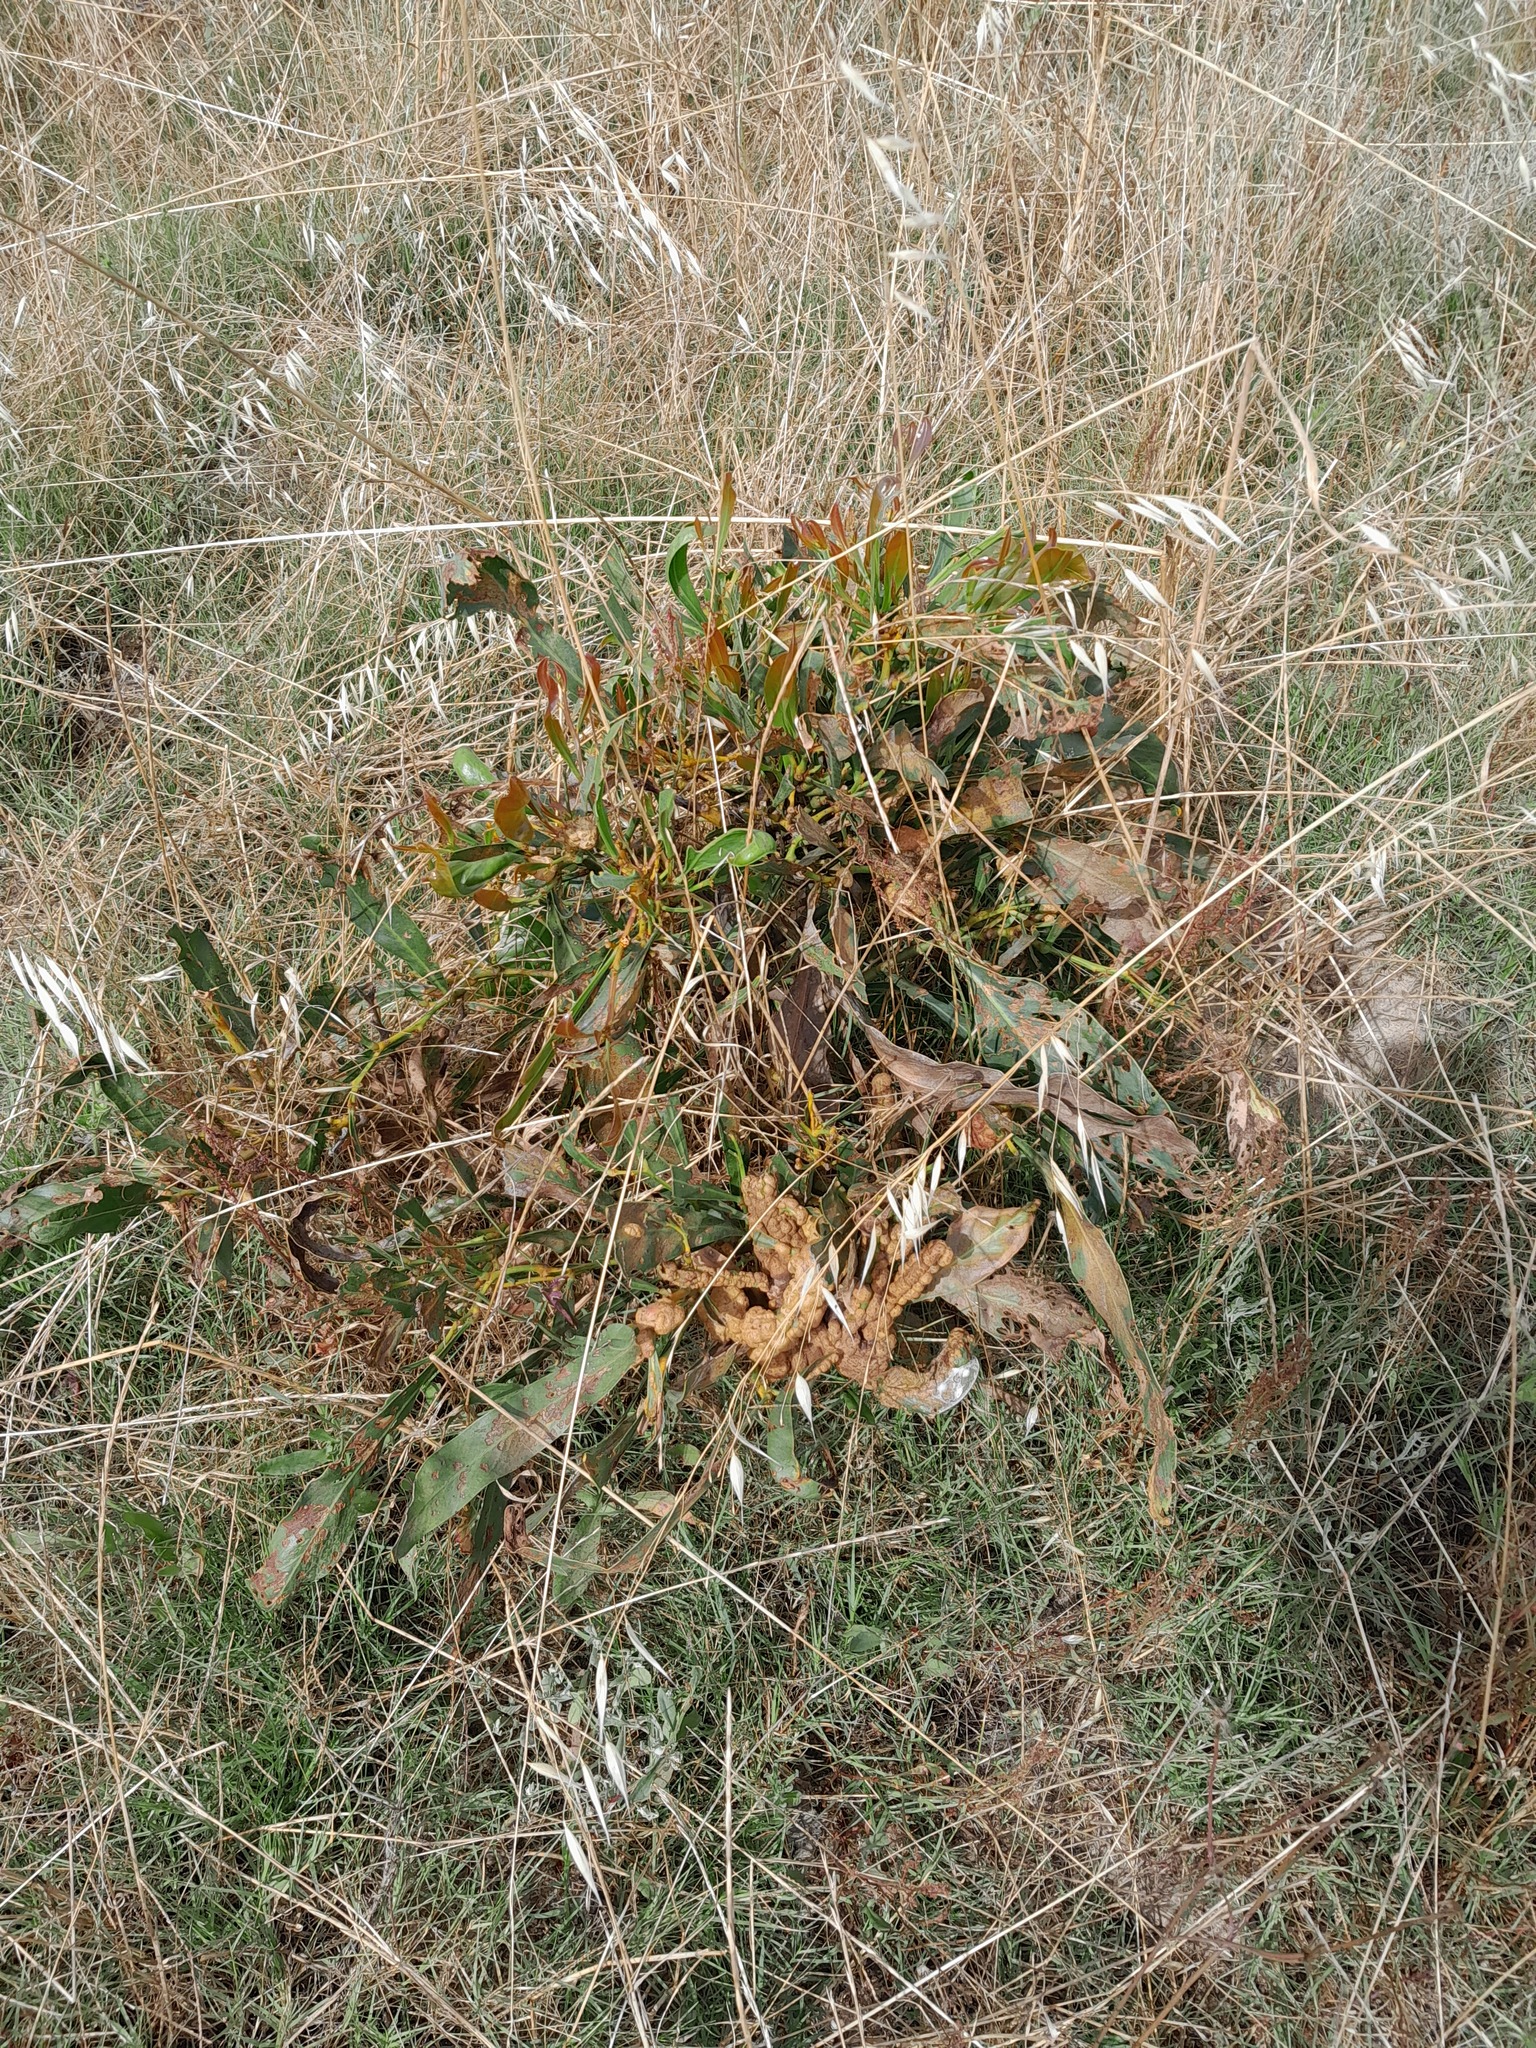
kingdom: Fungi
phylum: Basidiomycota
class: Pucciniomycetes
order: Pucciniales
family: Uromycladiaceae
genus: Uromycladium
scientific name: Uromycladium morrisii
